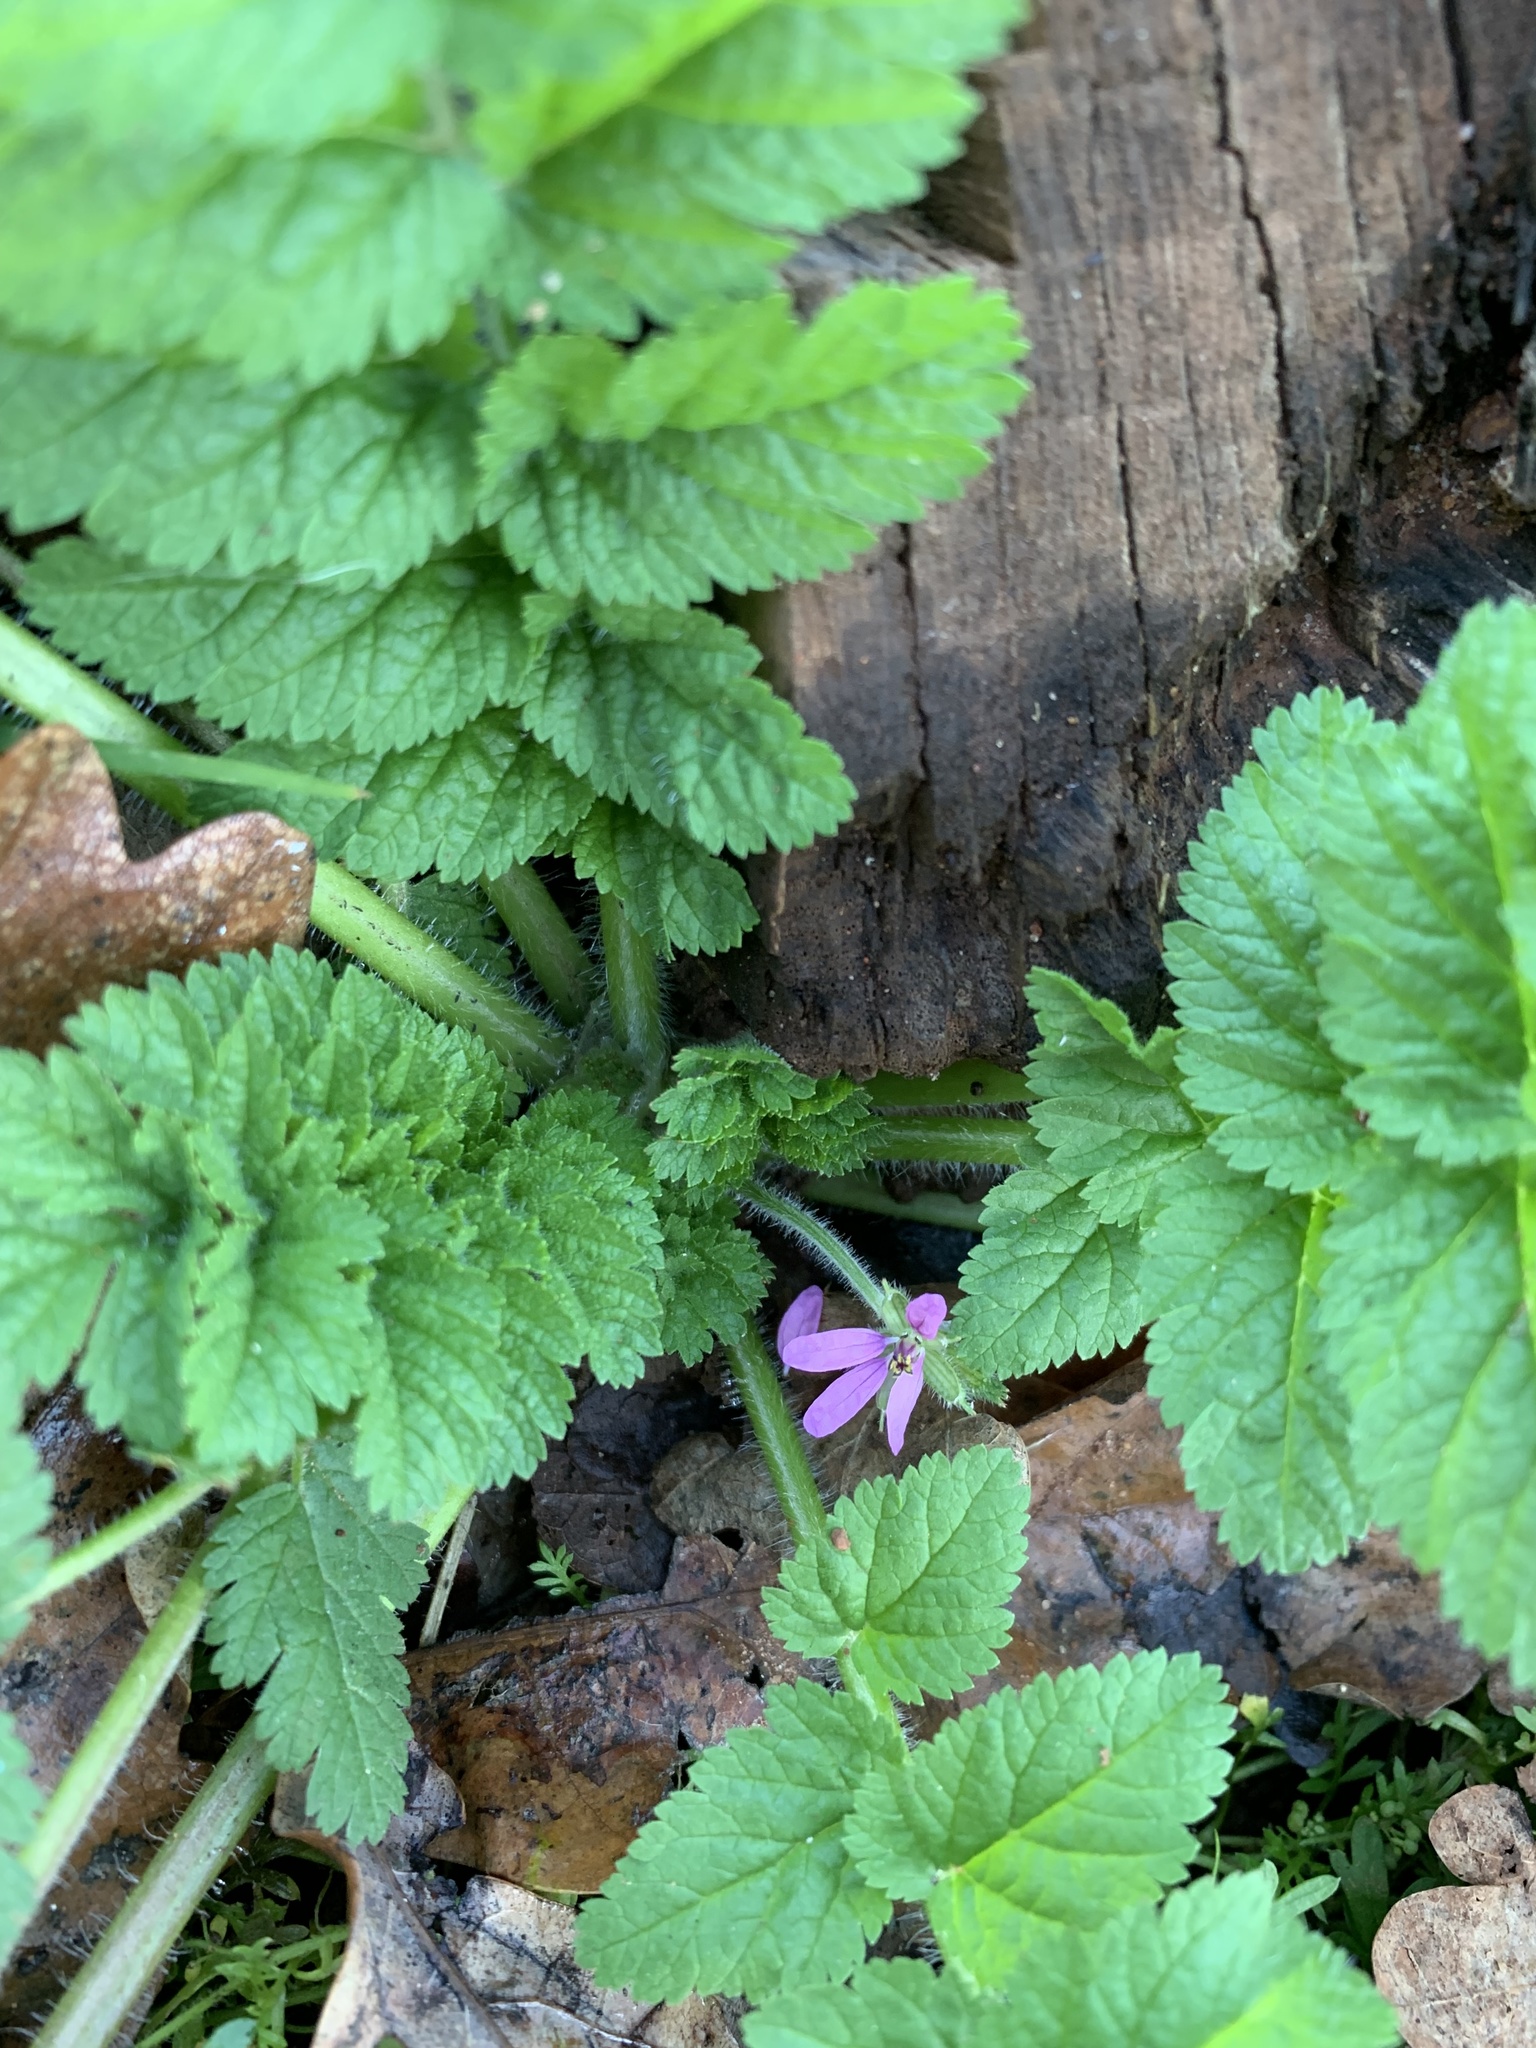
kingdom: Plantae
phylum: Tracheophyta
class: Magnoliopsida
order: Geraniales
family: Geraniaceae
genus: Erodium
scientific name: Erodium moschatum
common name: Musk stork's-bill
